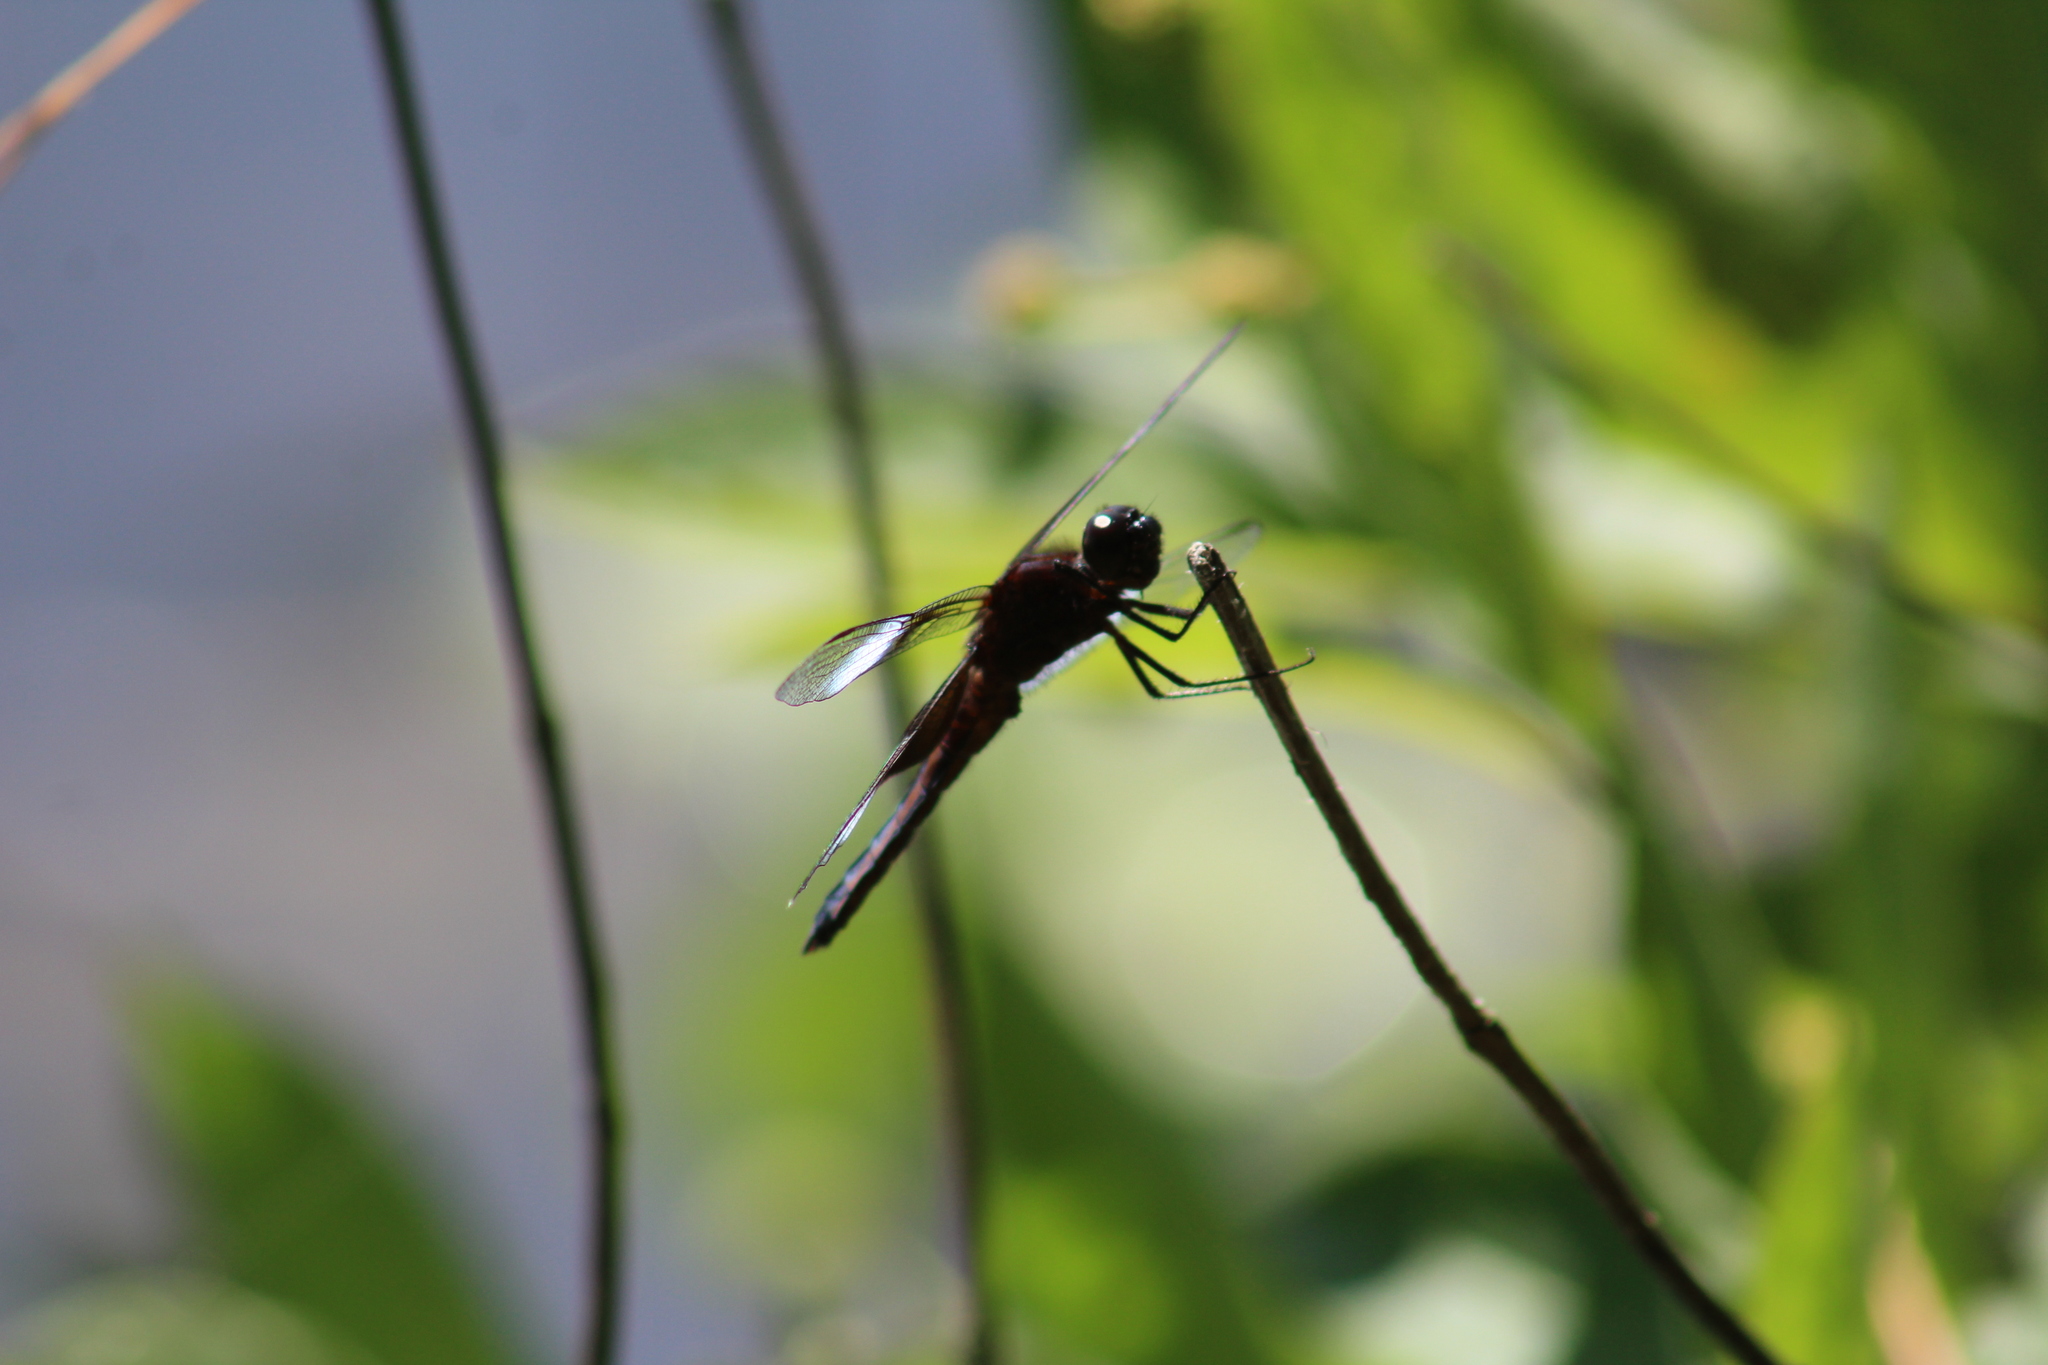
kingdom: Animalia
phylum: Arthropoda
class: Insecta
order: Odonata
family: Libellulidae
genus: Libellula
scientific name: Libellula luctuosa
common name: Widow skimmer
